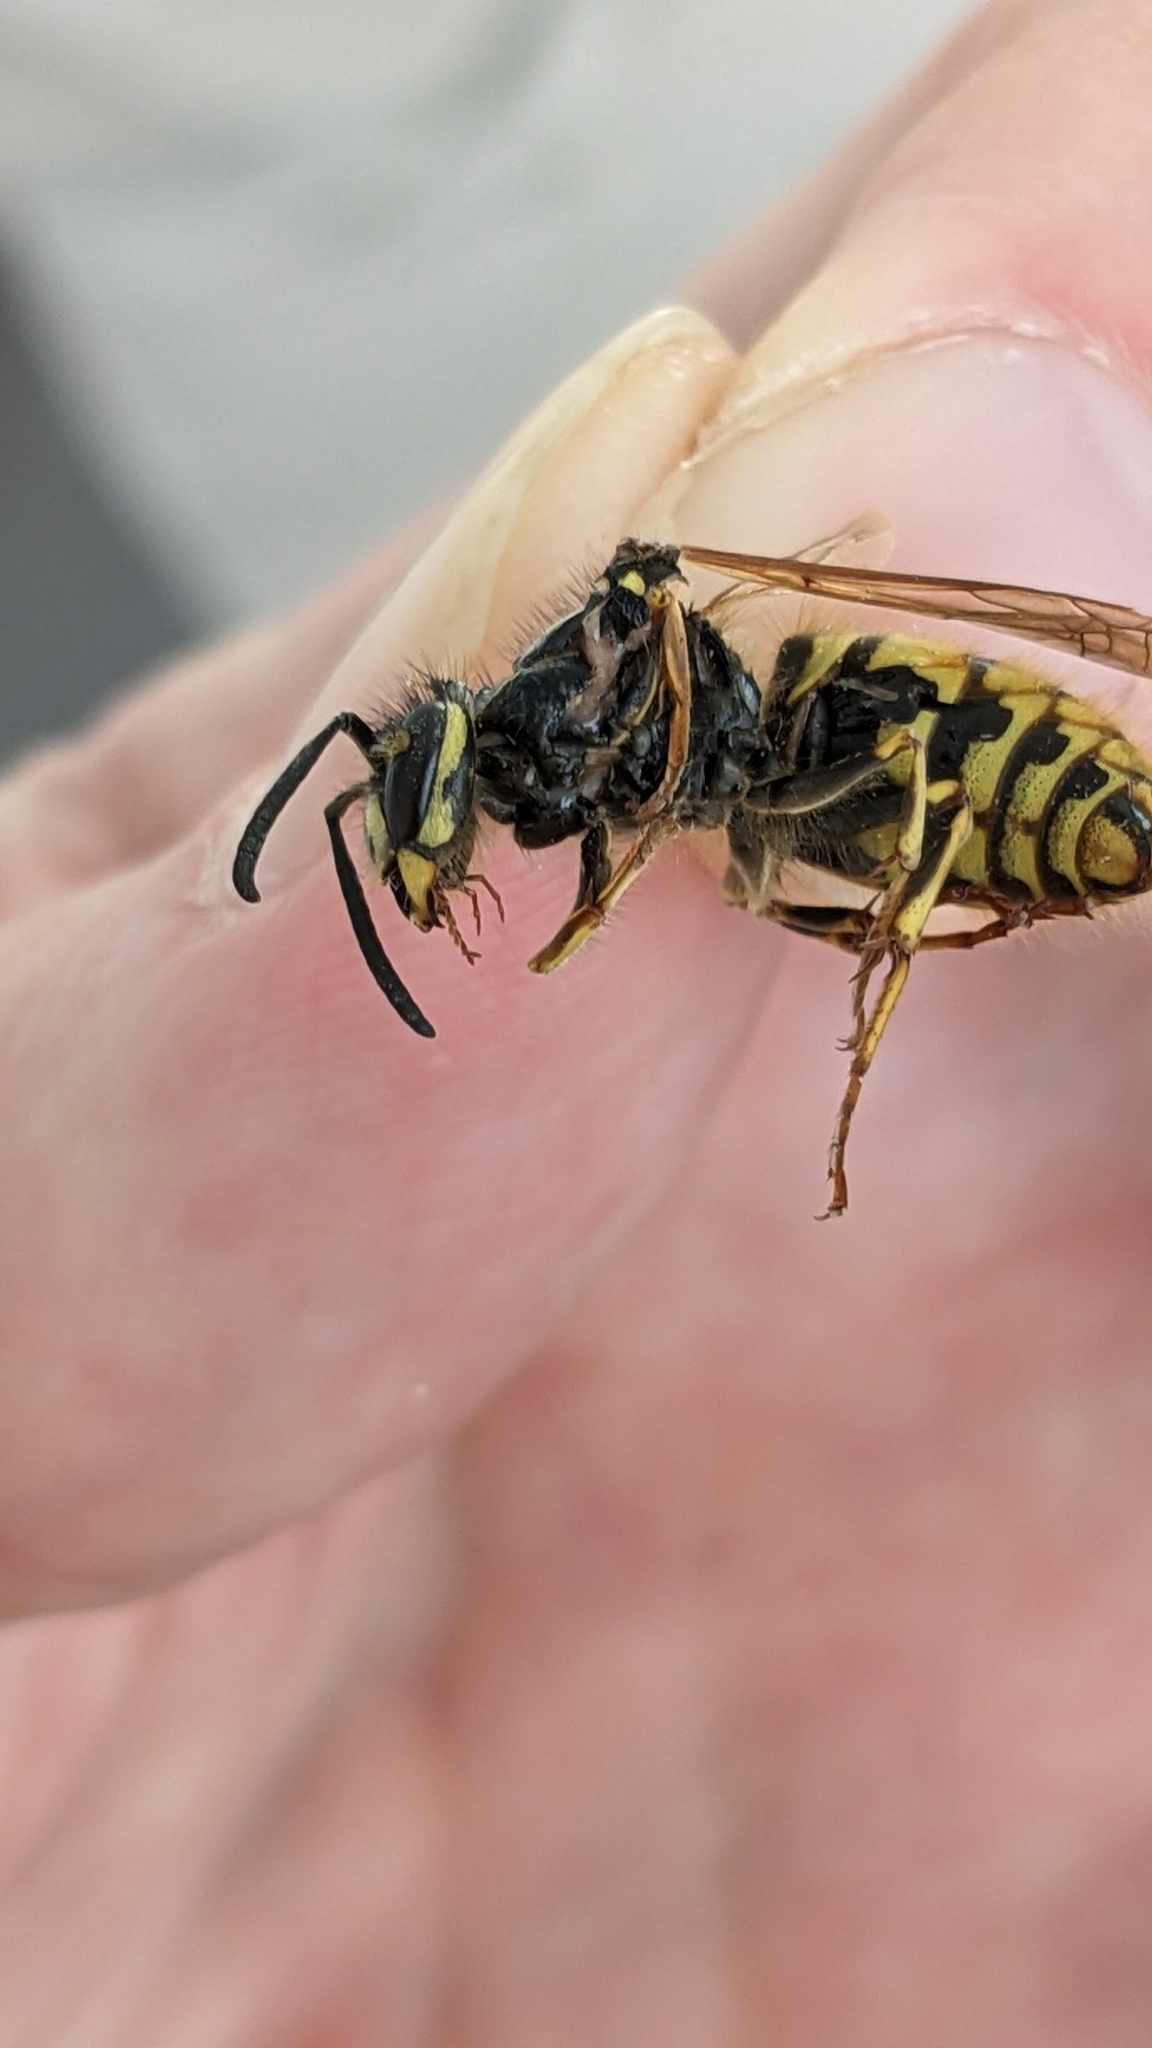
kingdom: Animalia
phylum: Arthropoda
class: Insecta
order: Hymenoptera
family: Vespidae
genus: Vespula
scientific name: Vespula vulgaris
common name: Common wasp
